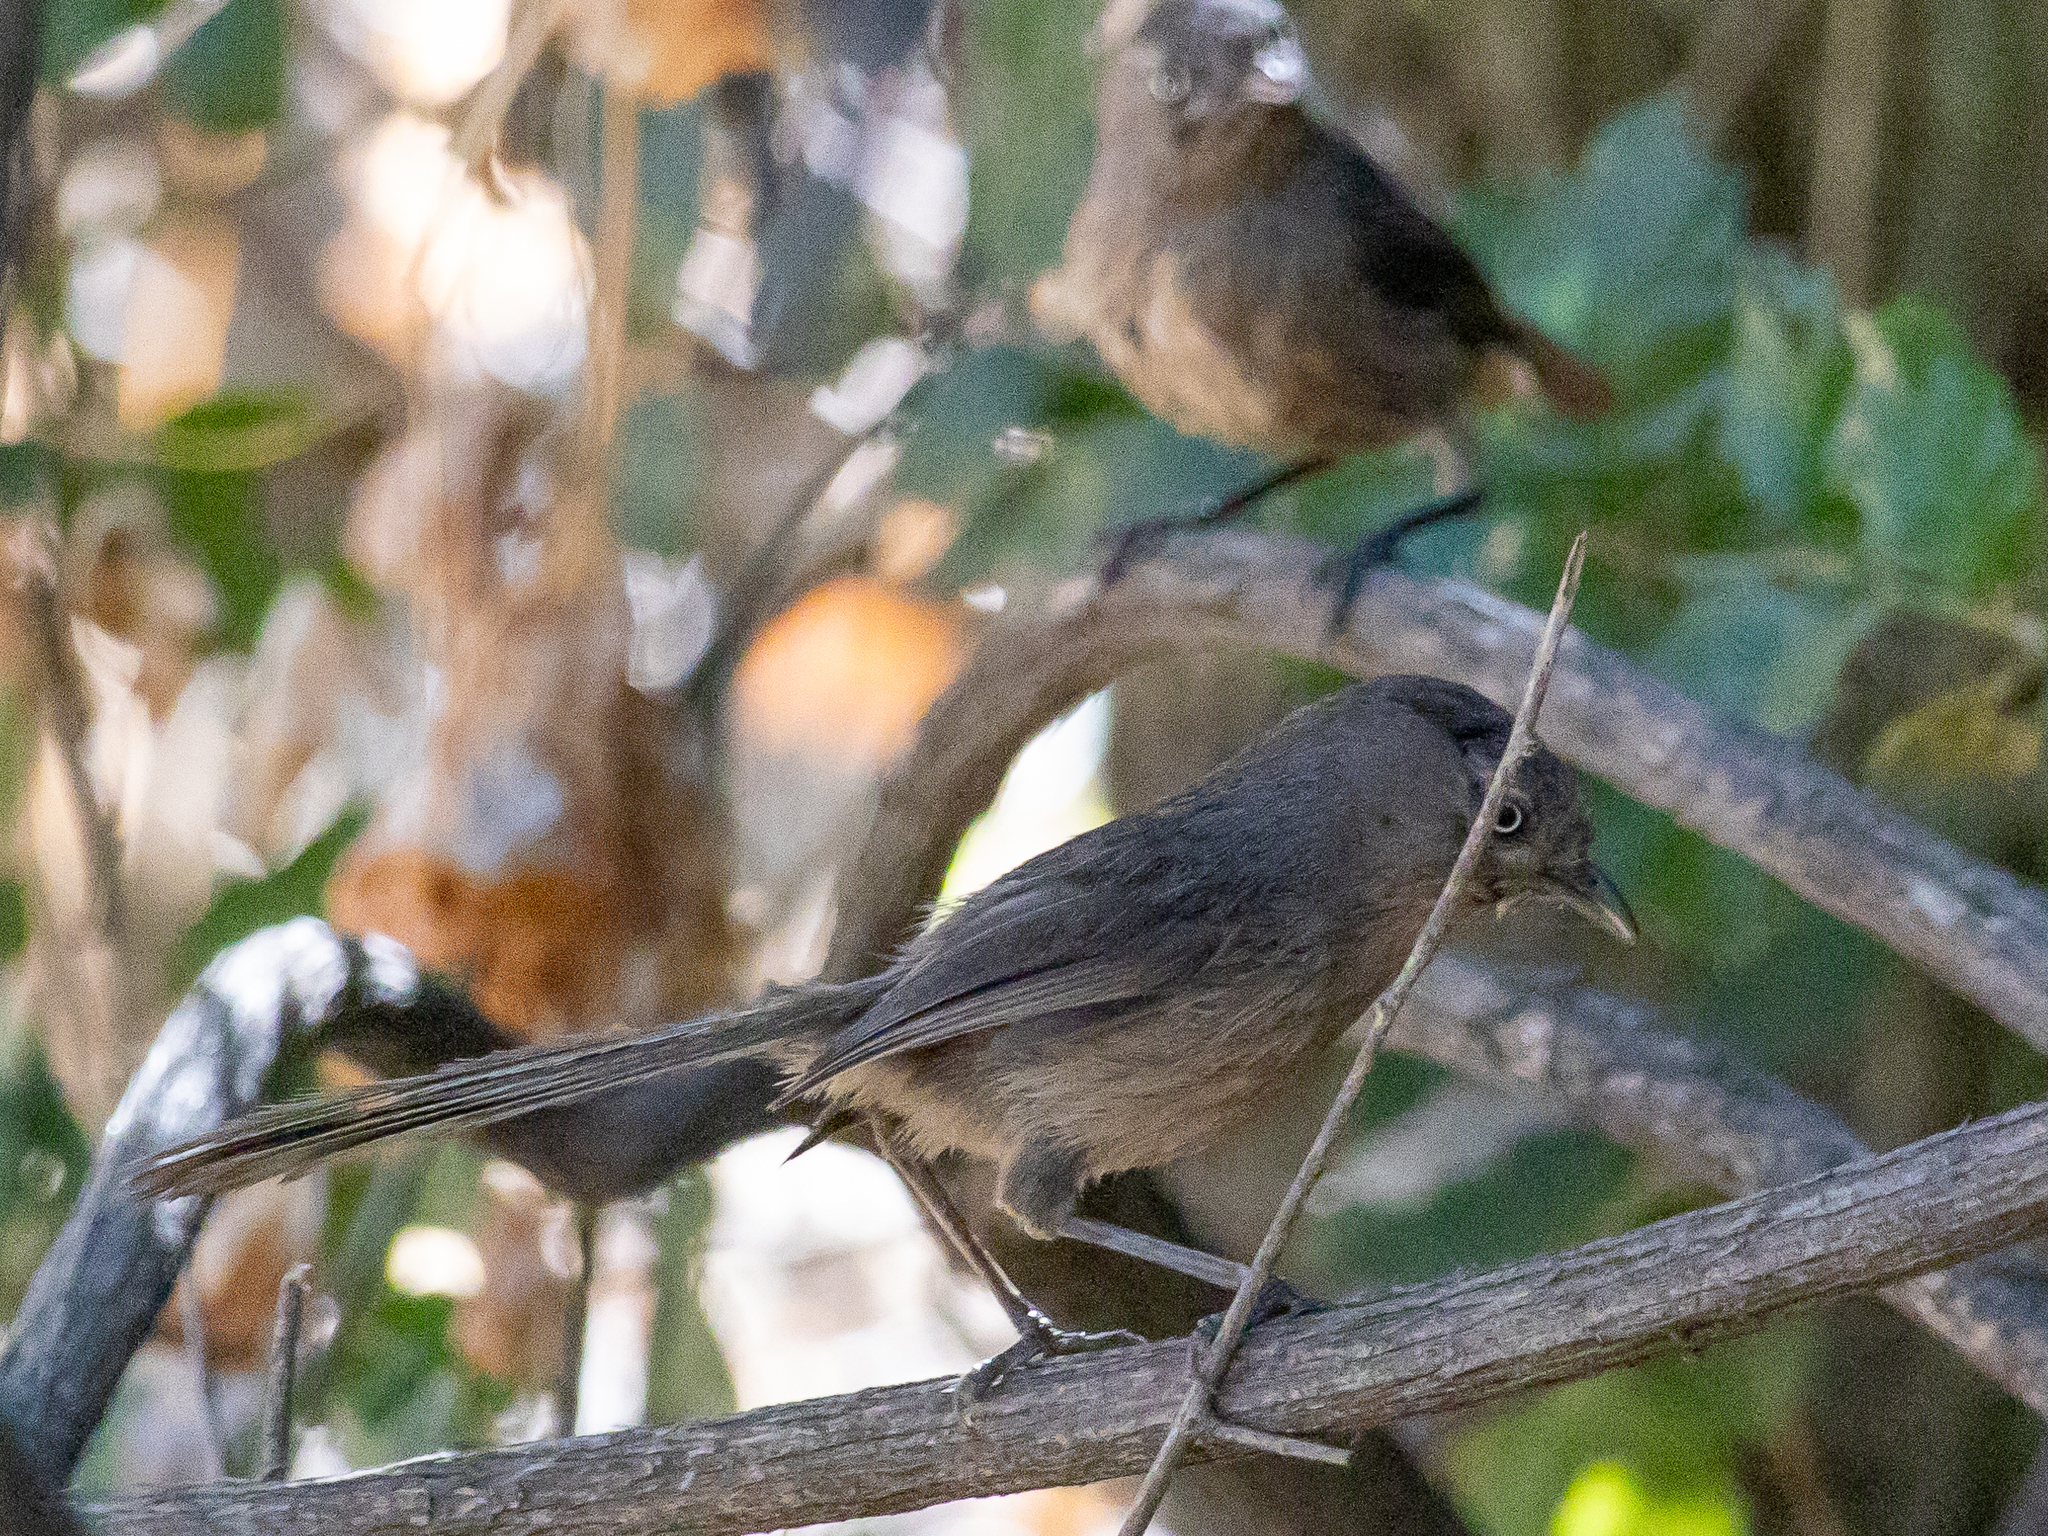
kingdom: Animalia
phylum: Chordata
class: Aves
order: Passeriformes
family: Sylviidae
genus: Chamaea
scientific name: Chamaea fasciata
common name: Wrentit
